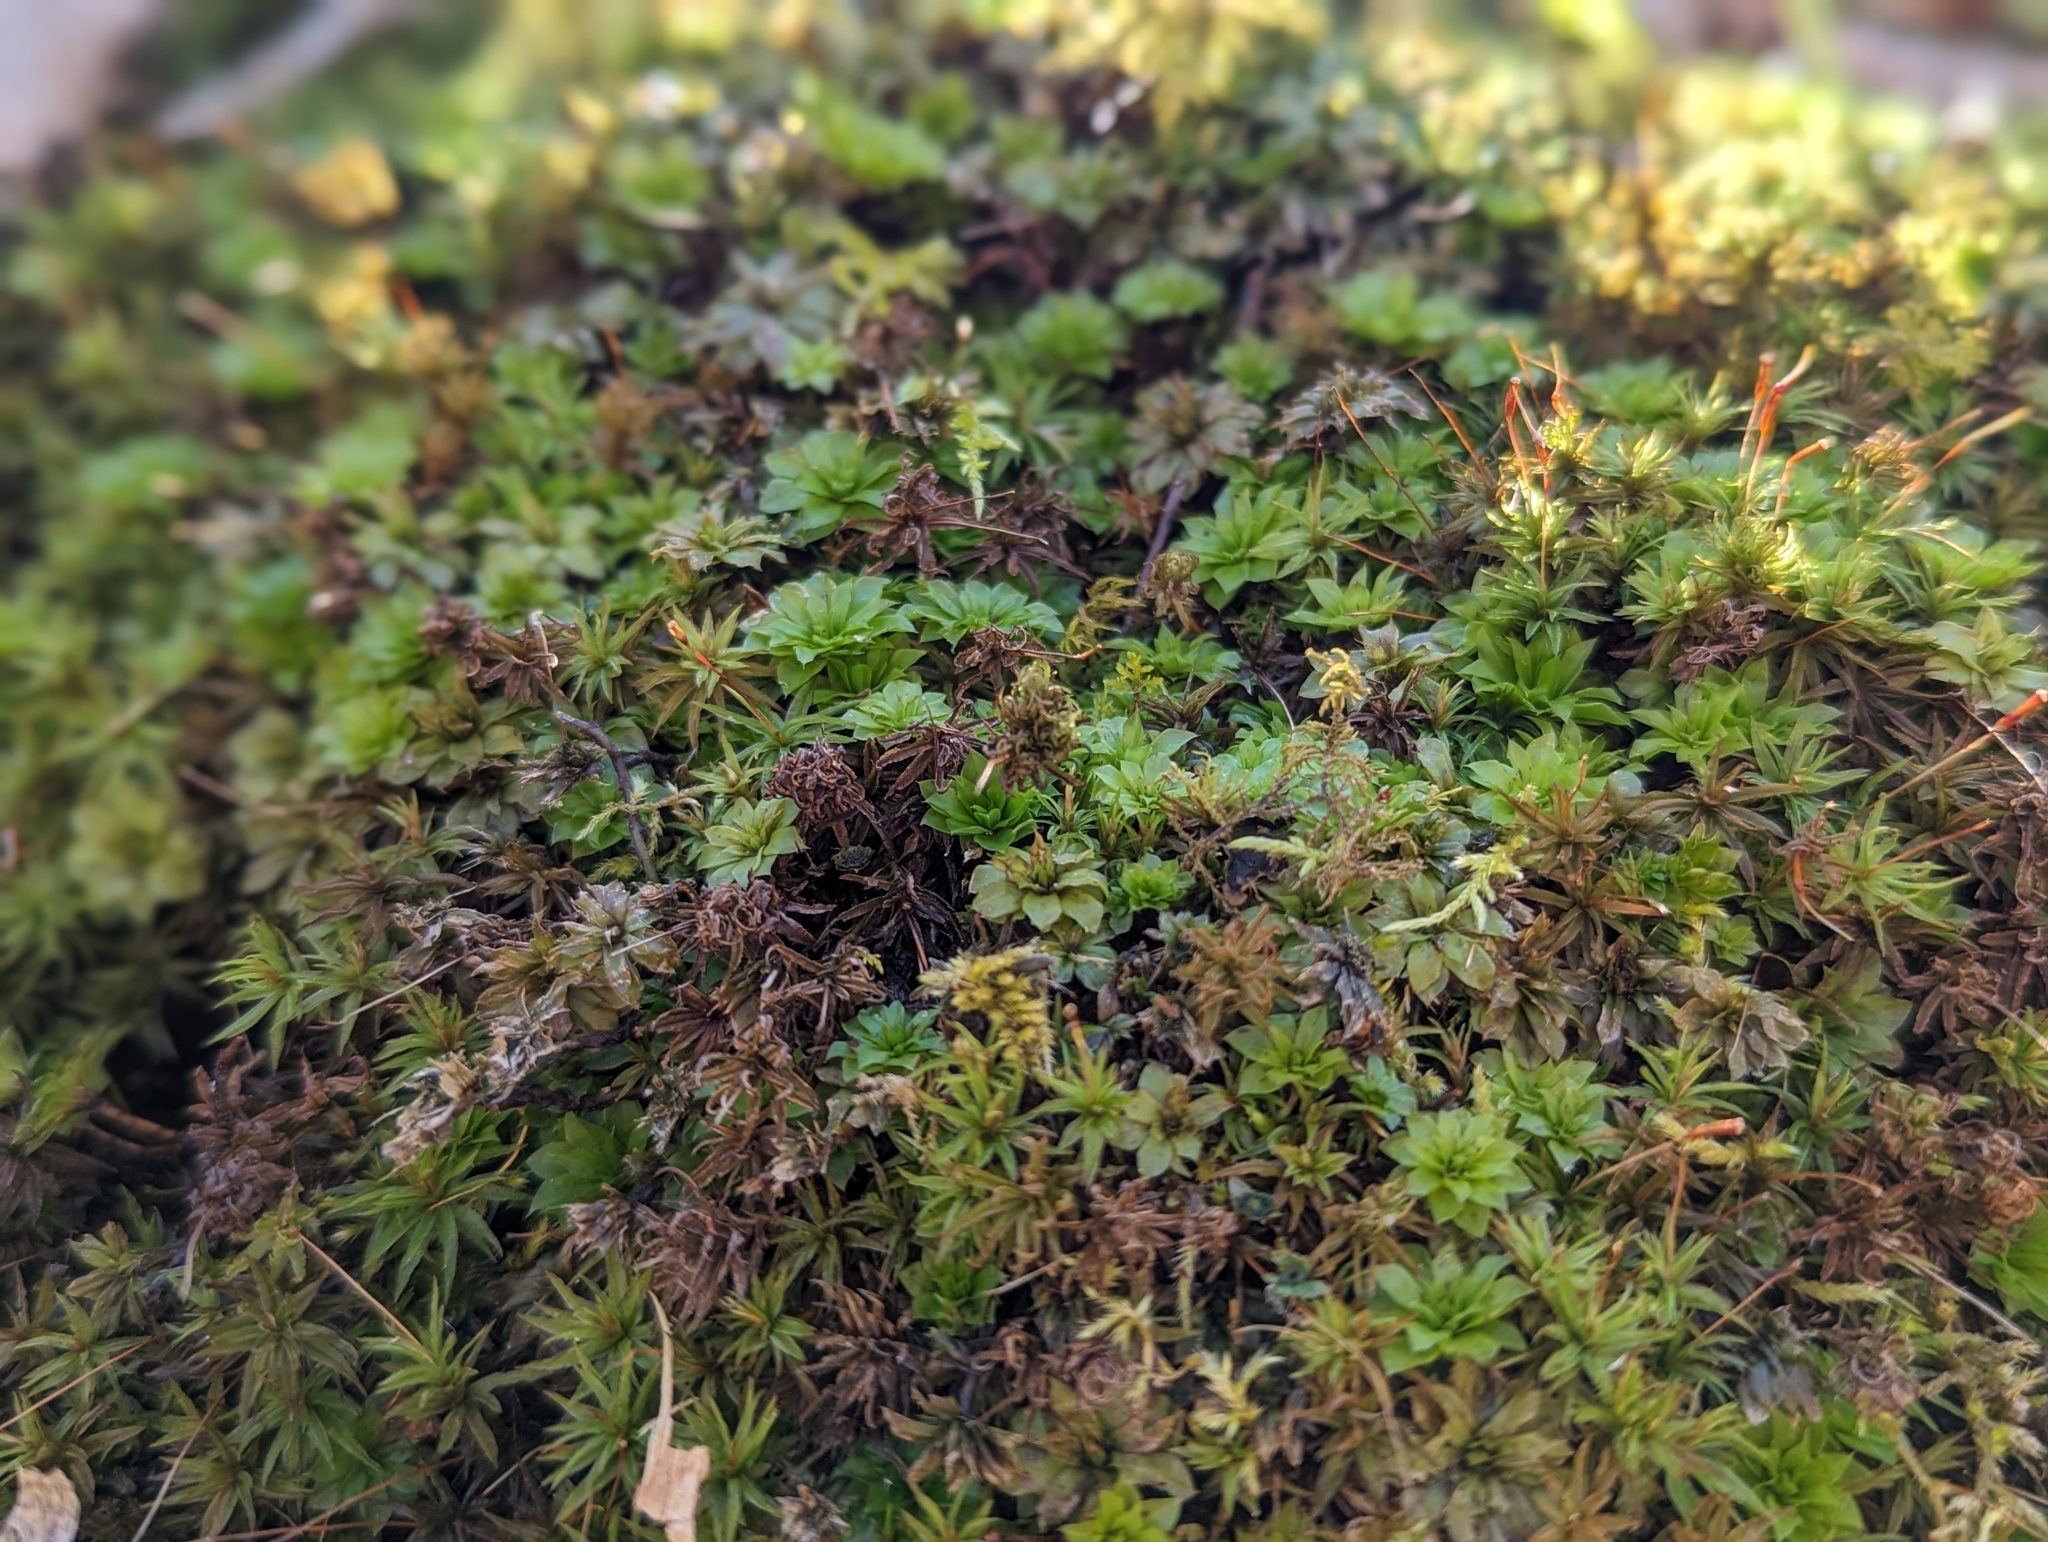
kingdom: Plantae
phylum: Bryophyta
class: Bryopsida
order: Bryales
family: Bryaceae
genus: Rhodobryum
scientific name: Rhodobryum ontariense
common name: Ontario rhodobryum moss
